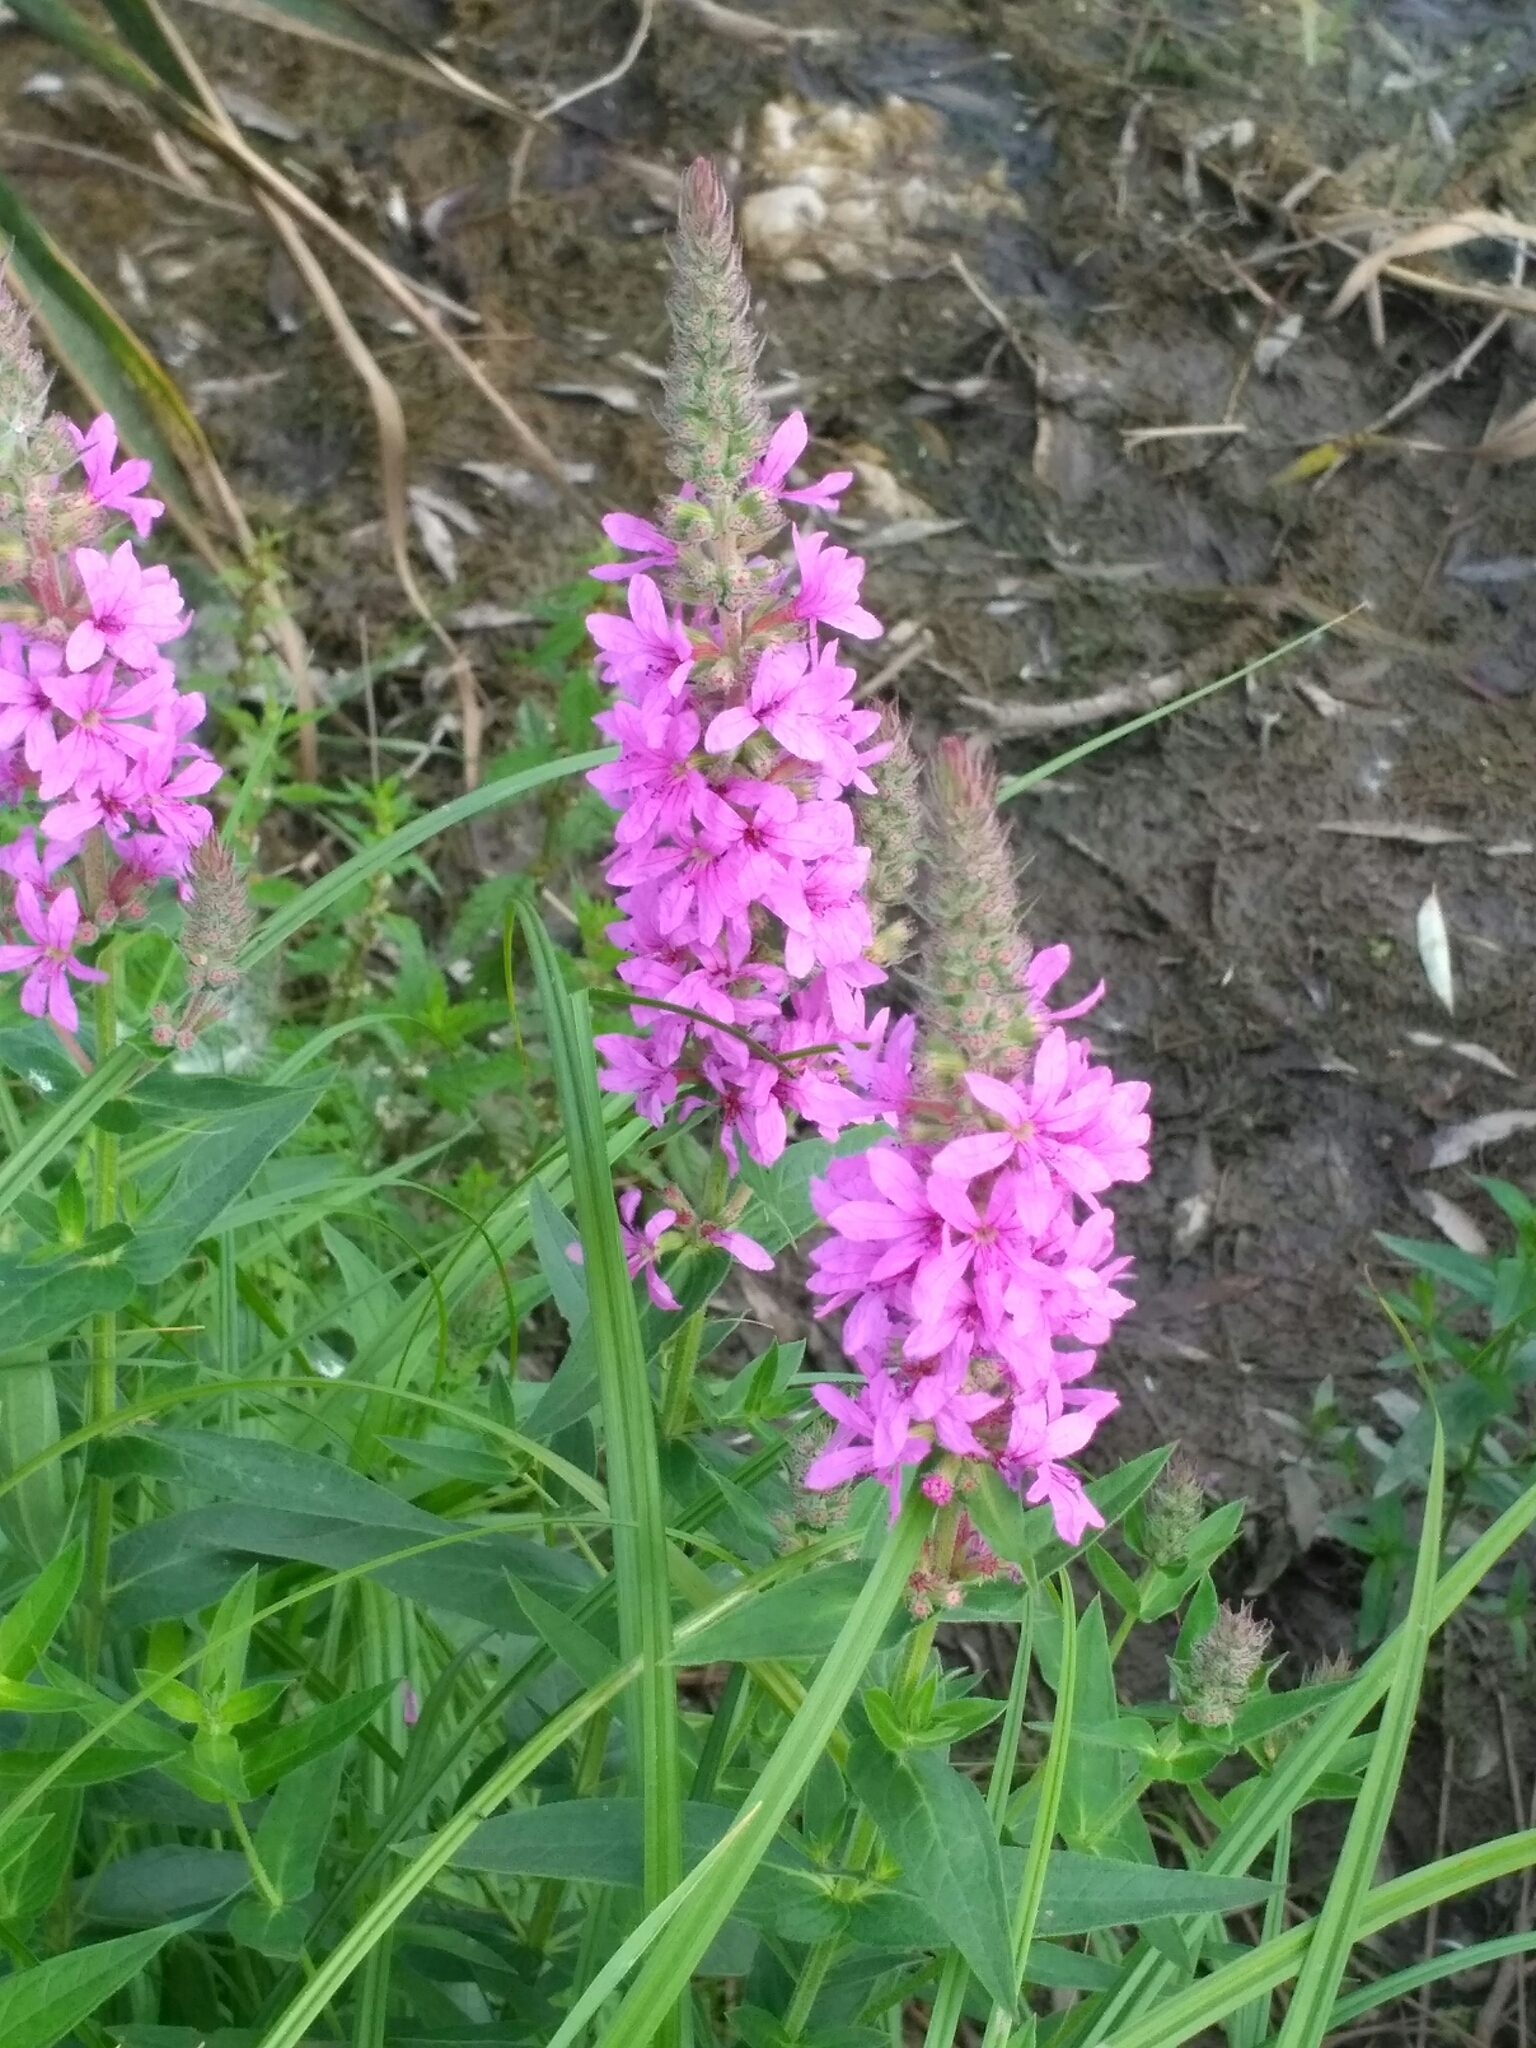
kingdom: Plantae
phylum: Tracheophyta
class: Magnoliopsida
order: Myrtales
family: Lythraceae
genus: Lythrum
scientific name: Lythrum salicaria
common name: Purple loosestrife
